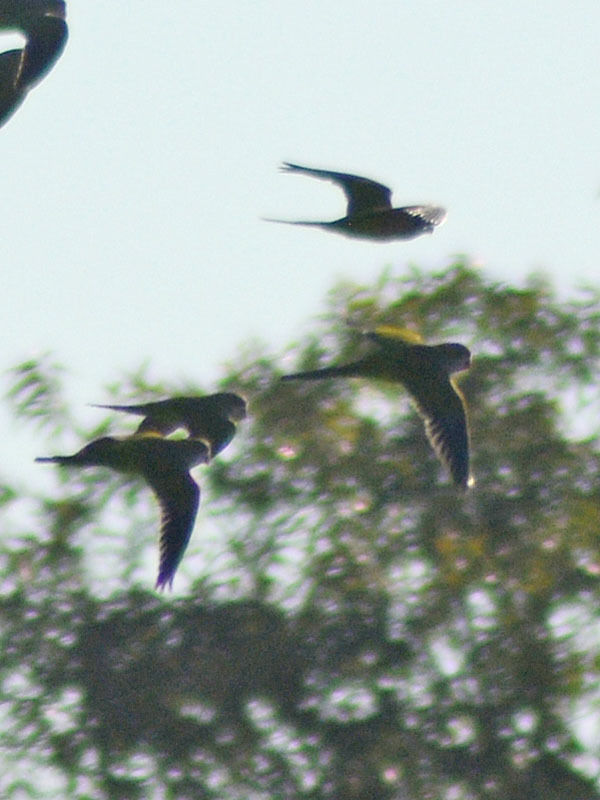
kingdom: Animalia
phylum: Chordata
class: Aves
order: Psittaciformes
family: Psittacidae
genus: Myiopsitta
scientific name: Myiopsitta monachus
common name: Monk parakeet
